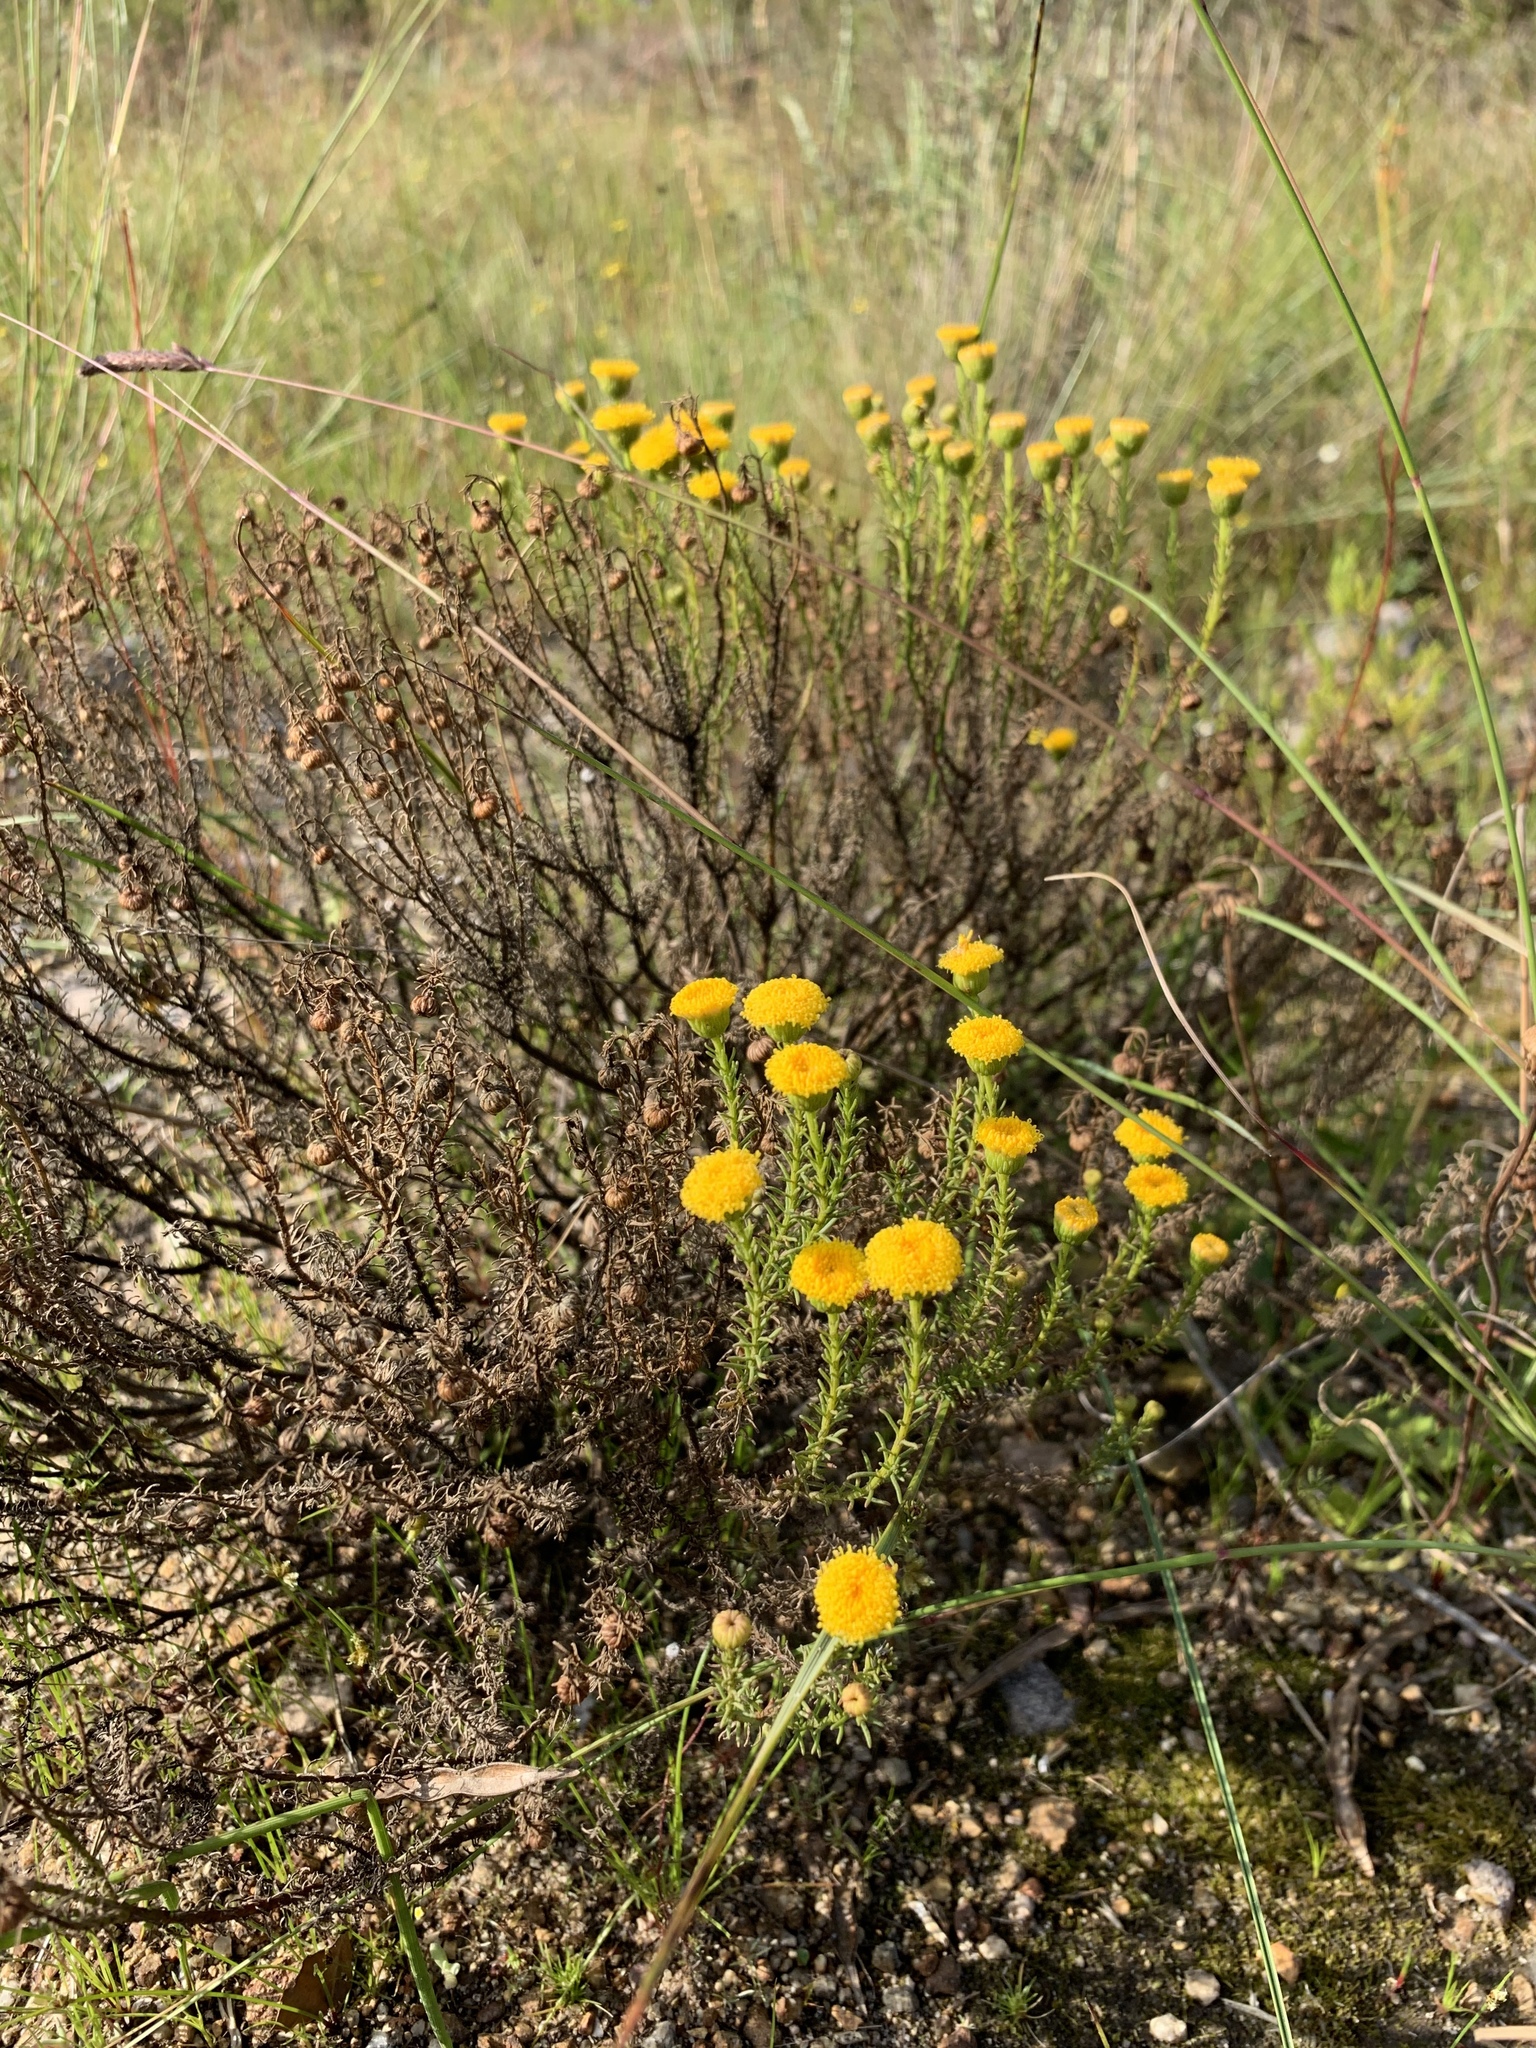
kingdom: Plantae
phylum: Tracheophyta
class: Magnoliopsida
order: Asterales
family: Asteraceae
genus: Chrysocoma
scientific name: Chrysocoma ciliata
